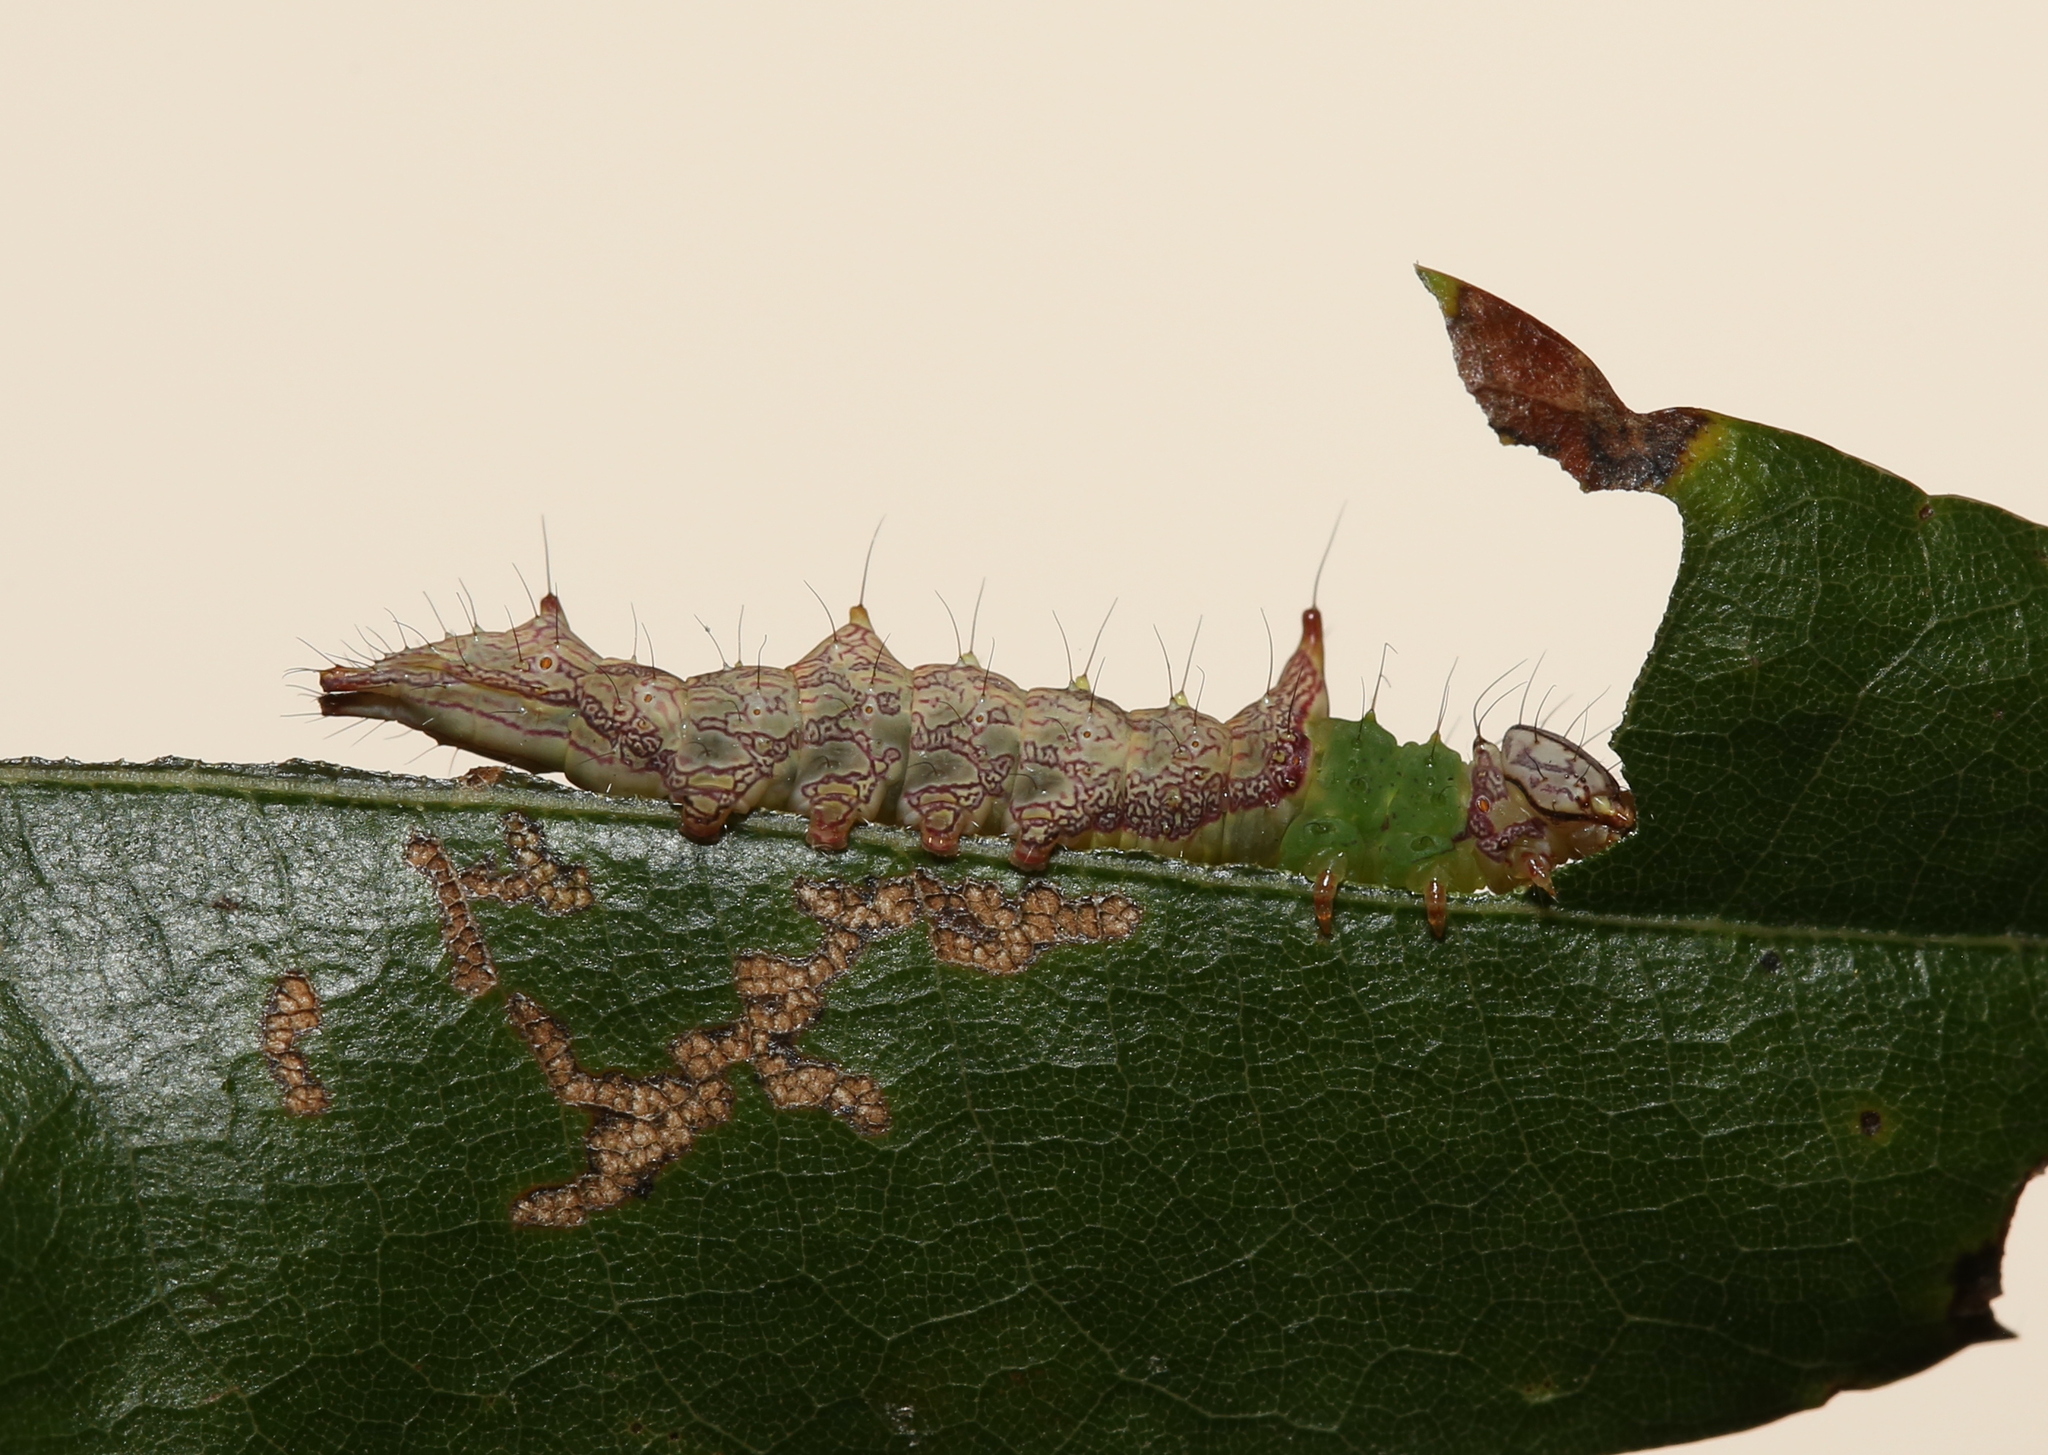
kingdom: Animalia
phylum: Arthropoda
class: Insecta
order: Lepidoptera
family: Notodontidae
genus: Schizura
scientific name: Schizura ipomaeae
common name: Morning-glory prominent
